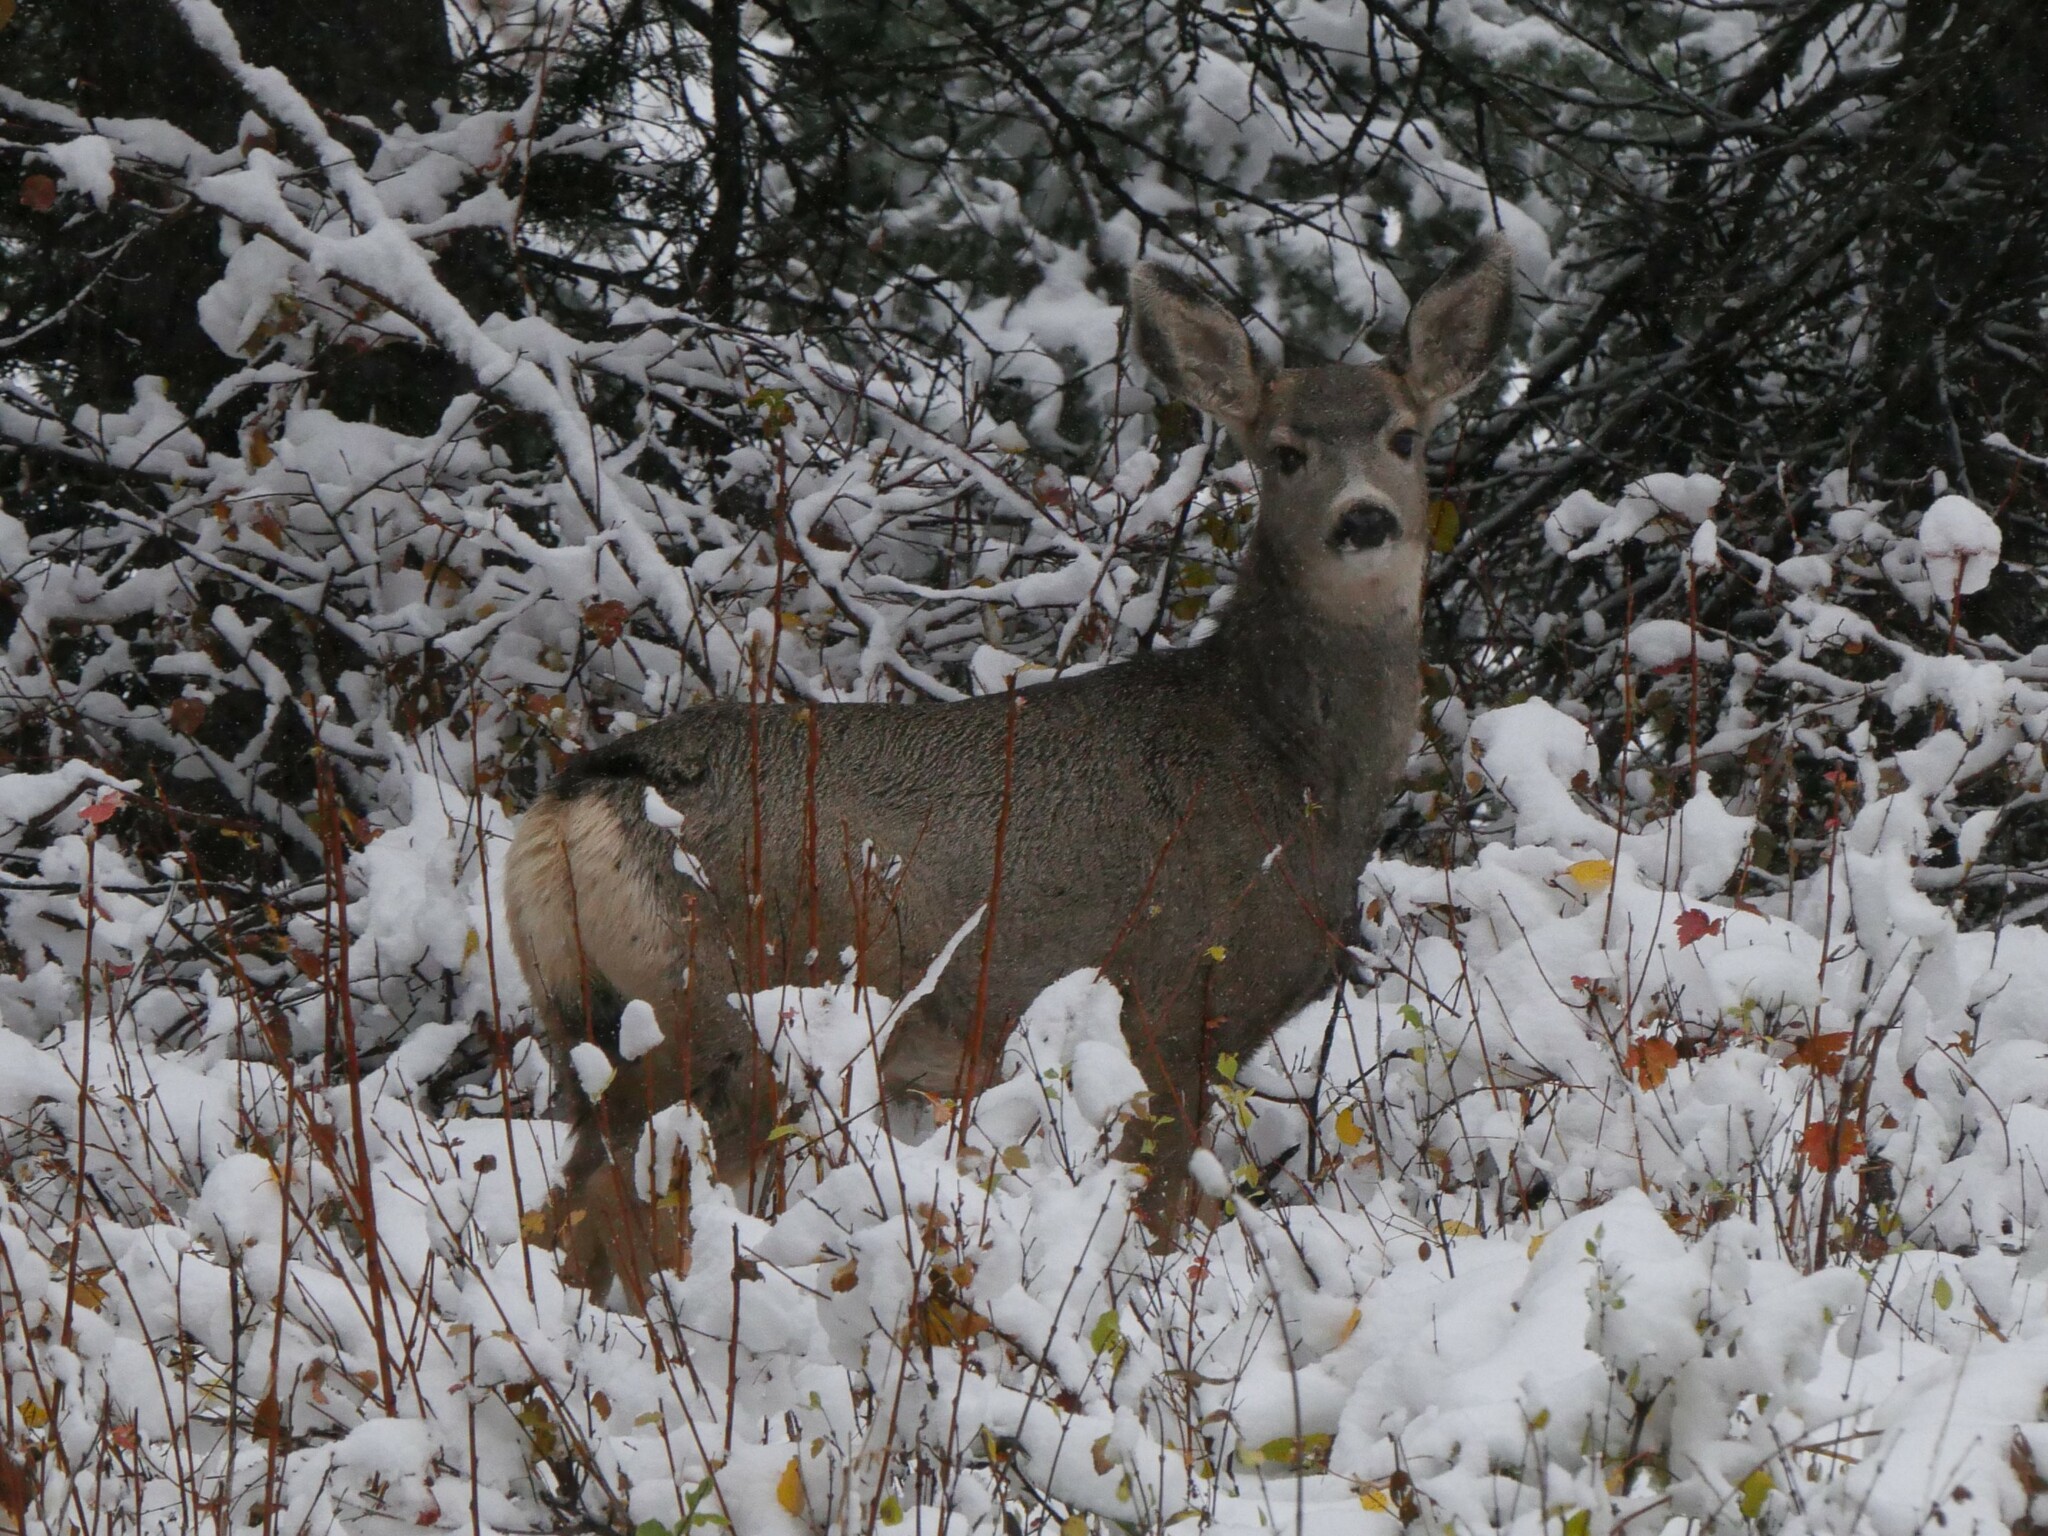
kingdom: Animalia
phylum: Chordata
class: Mammalia
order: Artiodactyla
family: Cervidae
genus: Odocoileus
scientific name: Odocoileus hemionus
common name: Mule deer
